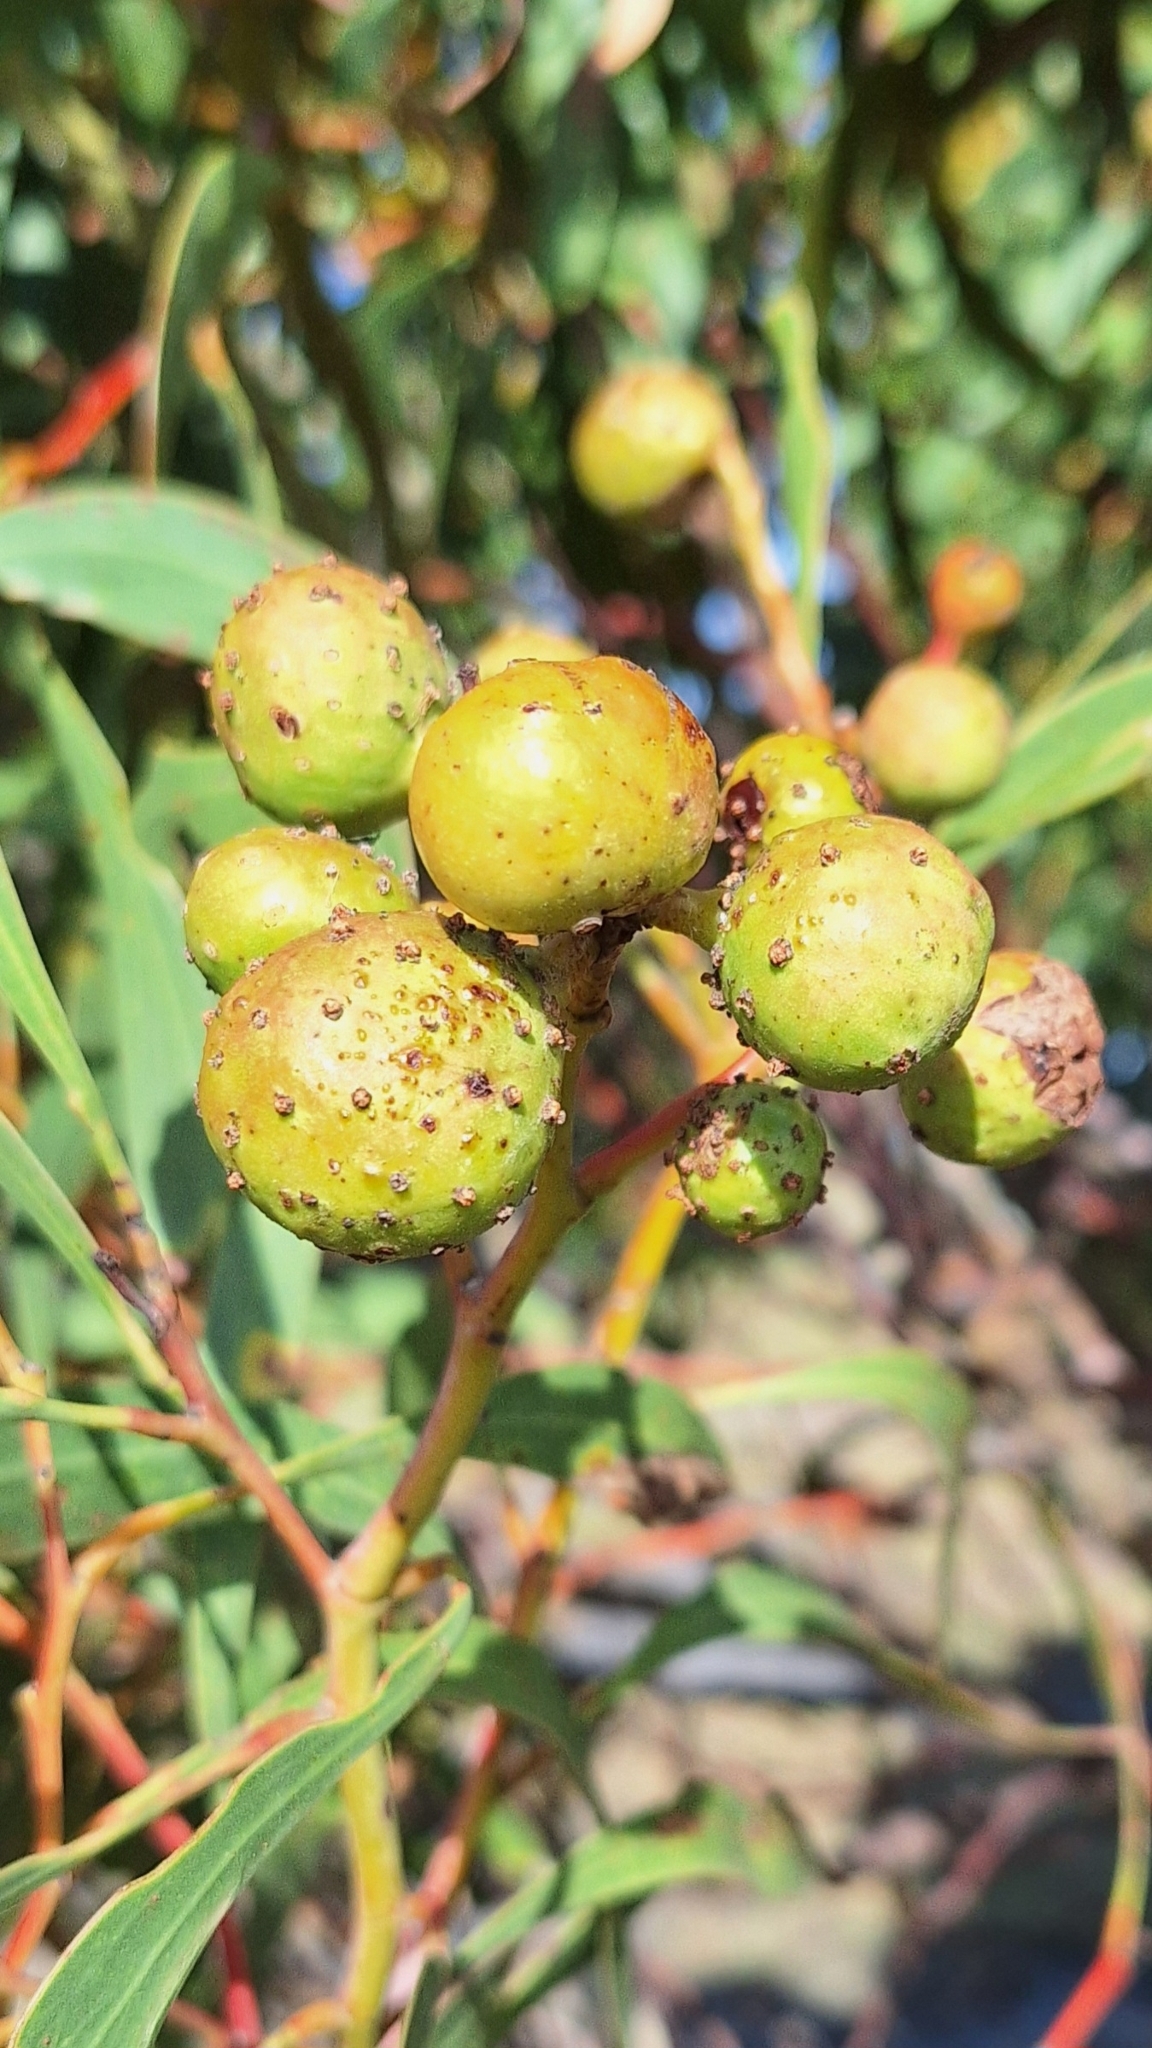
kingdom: Animalia
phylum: Arthropoda
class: Insecta
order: Hymenoptera
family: Pteromalidae
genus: Trichilogaster
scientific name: Trichilogaster signiventris
